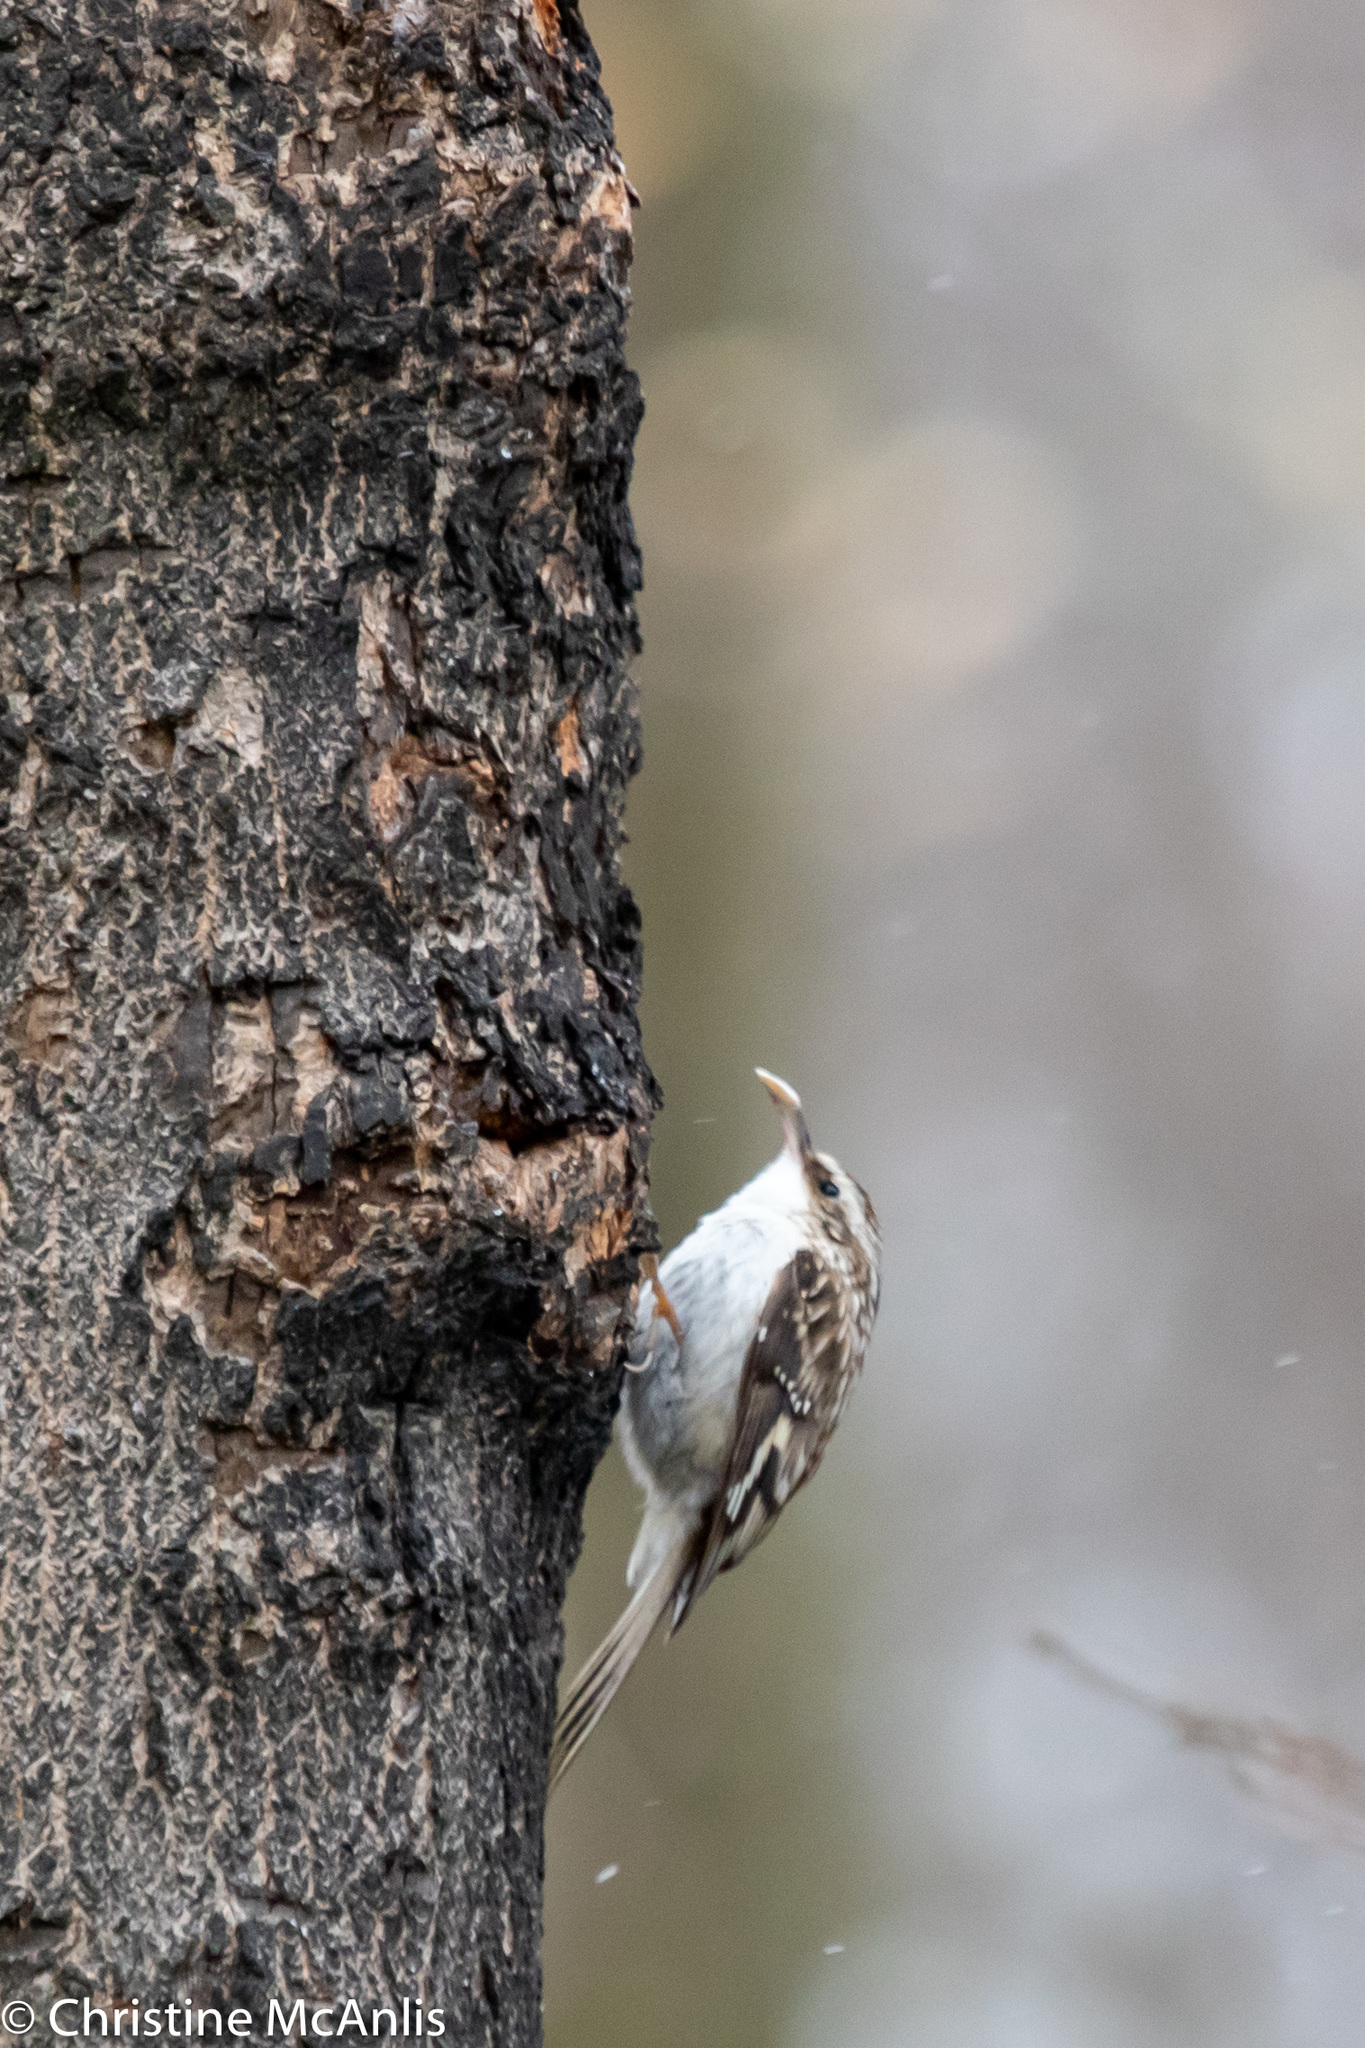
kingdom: Animalia
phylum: Chordata
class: Aves
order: Passeriformes
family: Certhiidae
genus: Certhia
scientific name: Certhia americana
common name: Brown creeper
